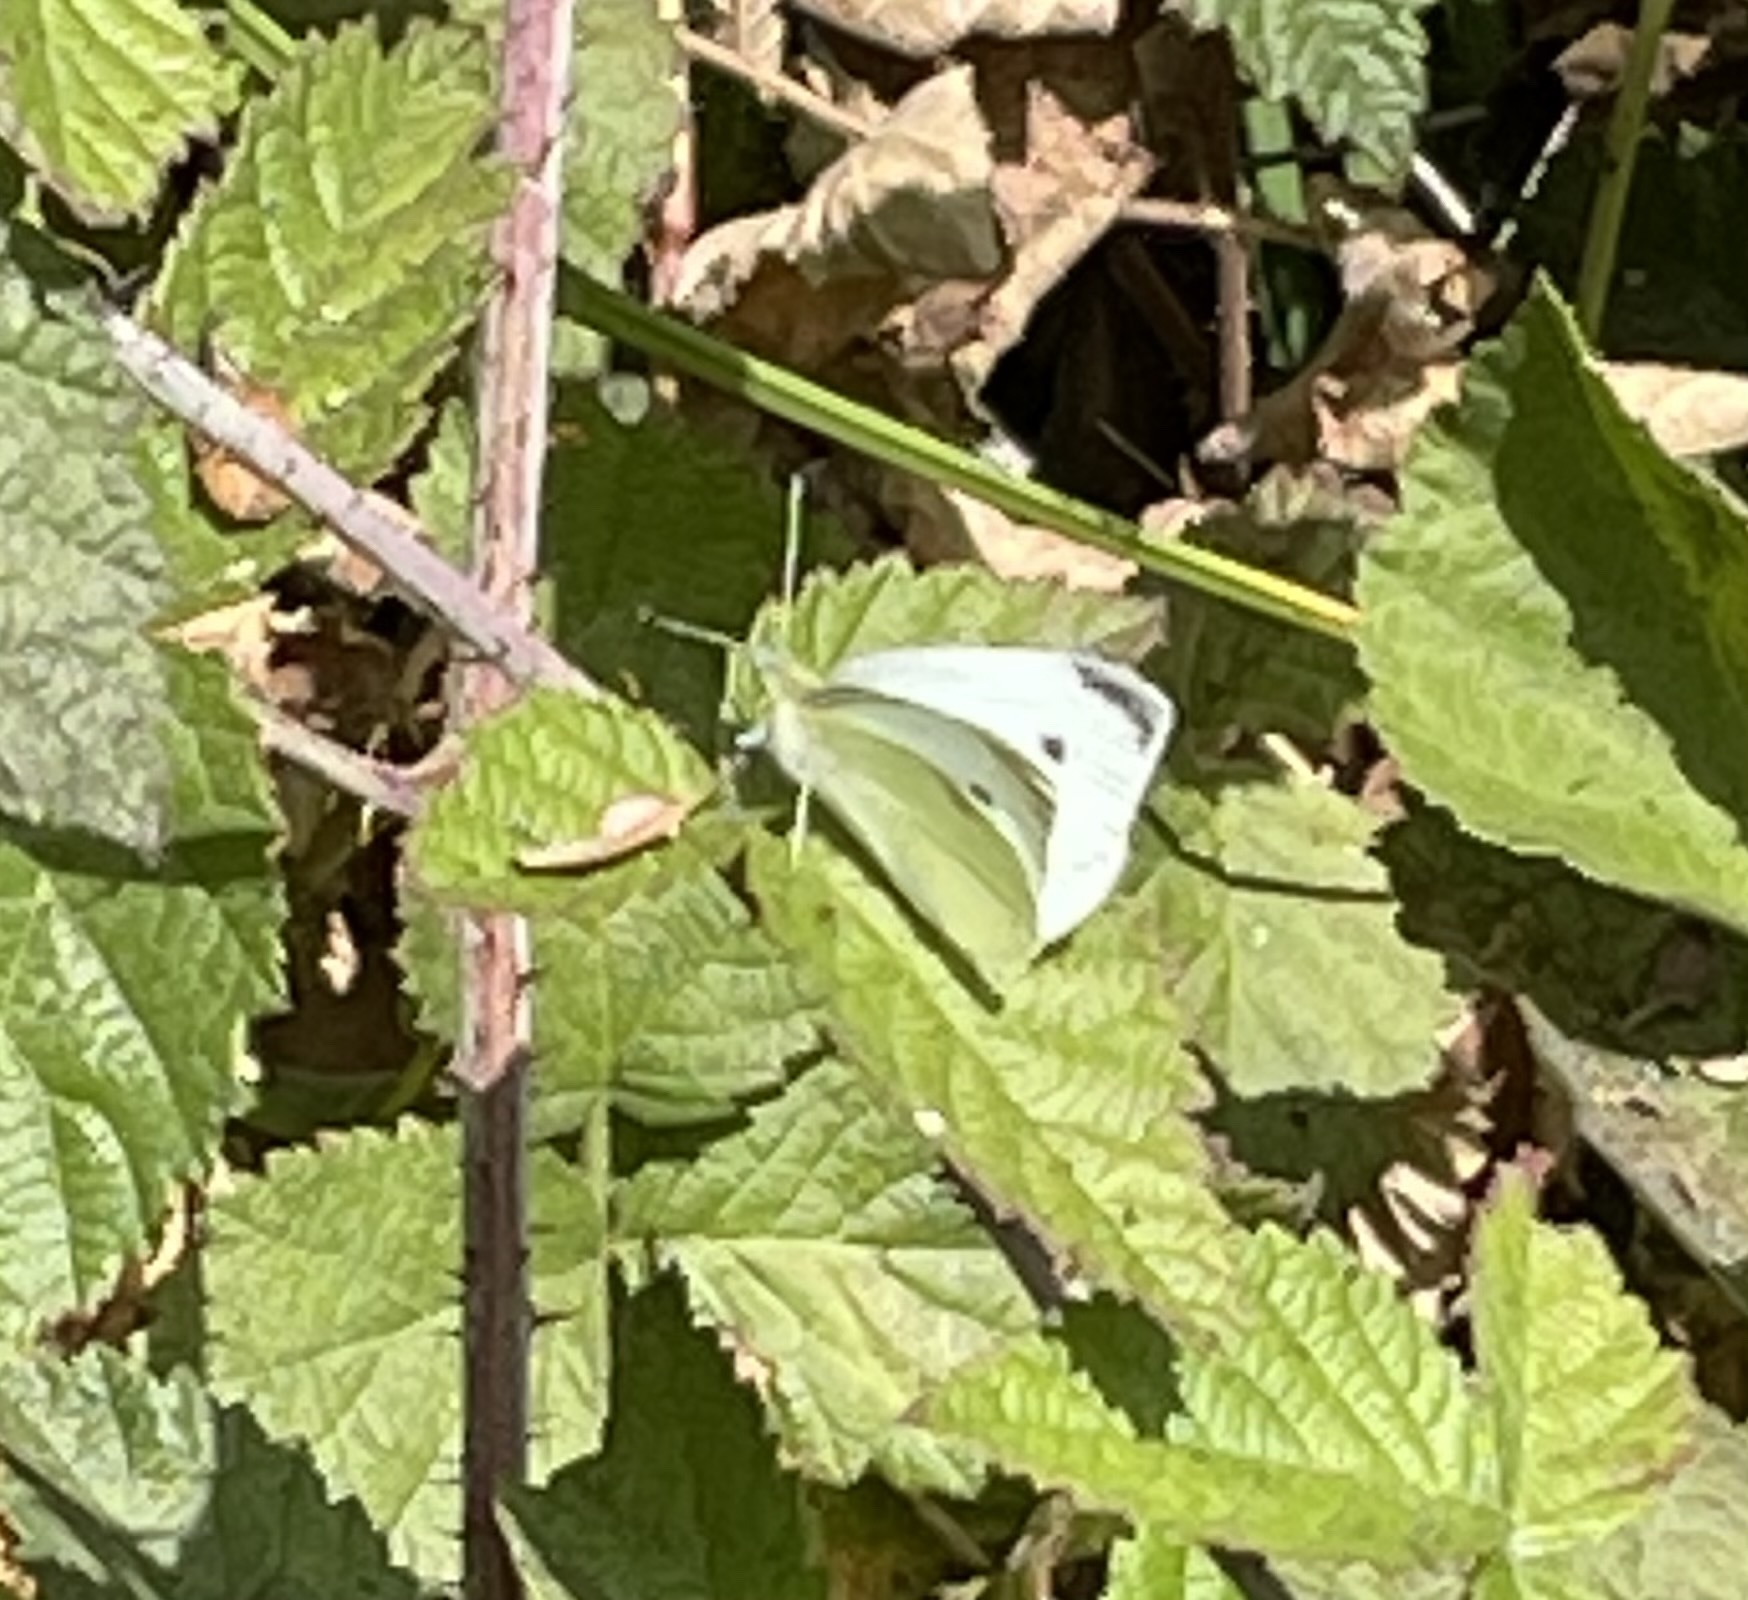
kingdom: Animalia
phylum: Arthropoda
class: Insecta
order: Lepidoptera
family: Pieridae
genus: Pieris
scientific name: Pieris rapae
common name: Small white
